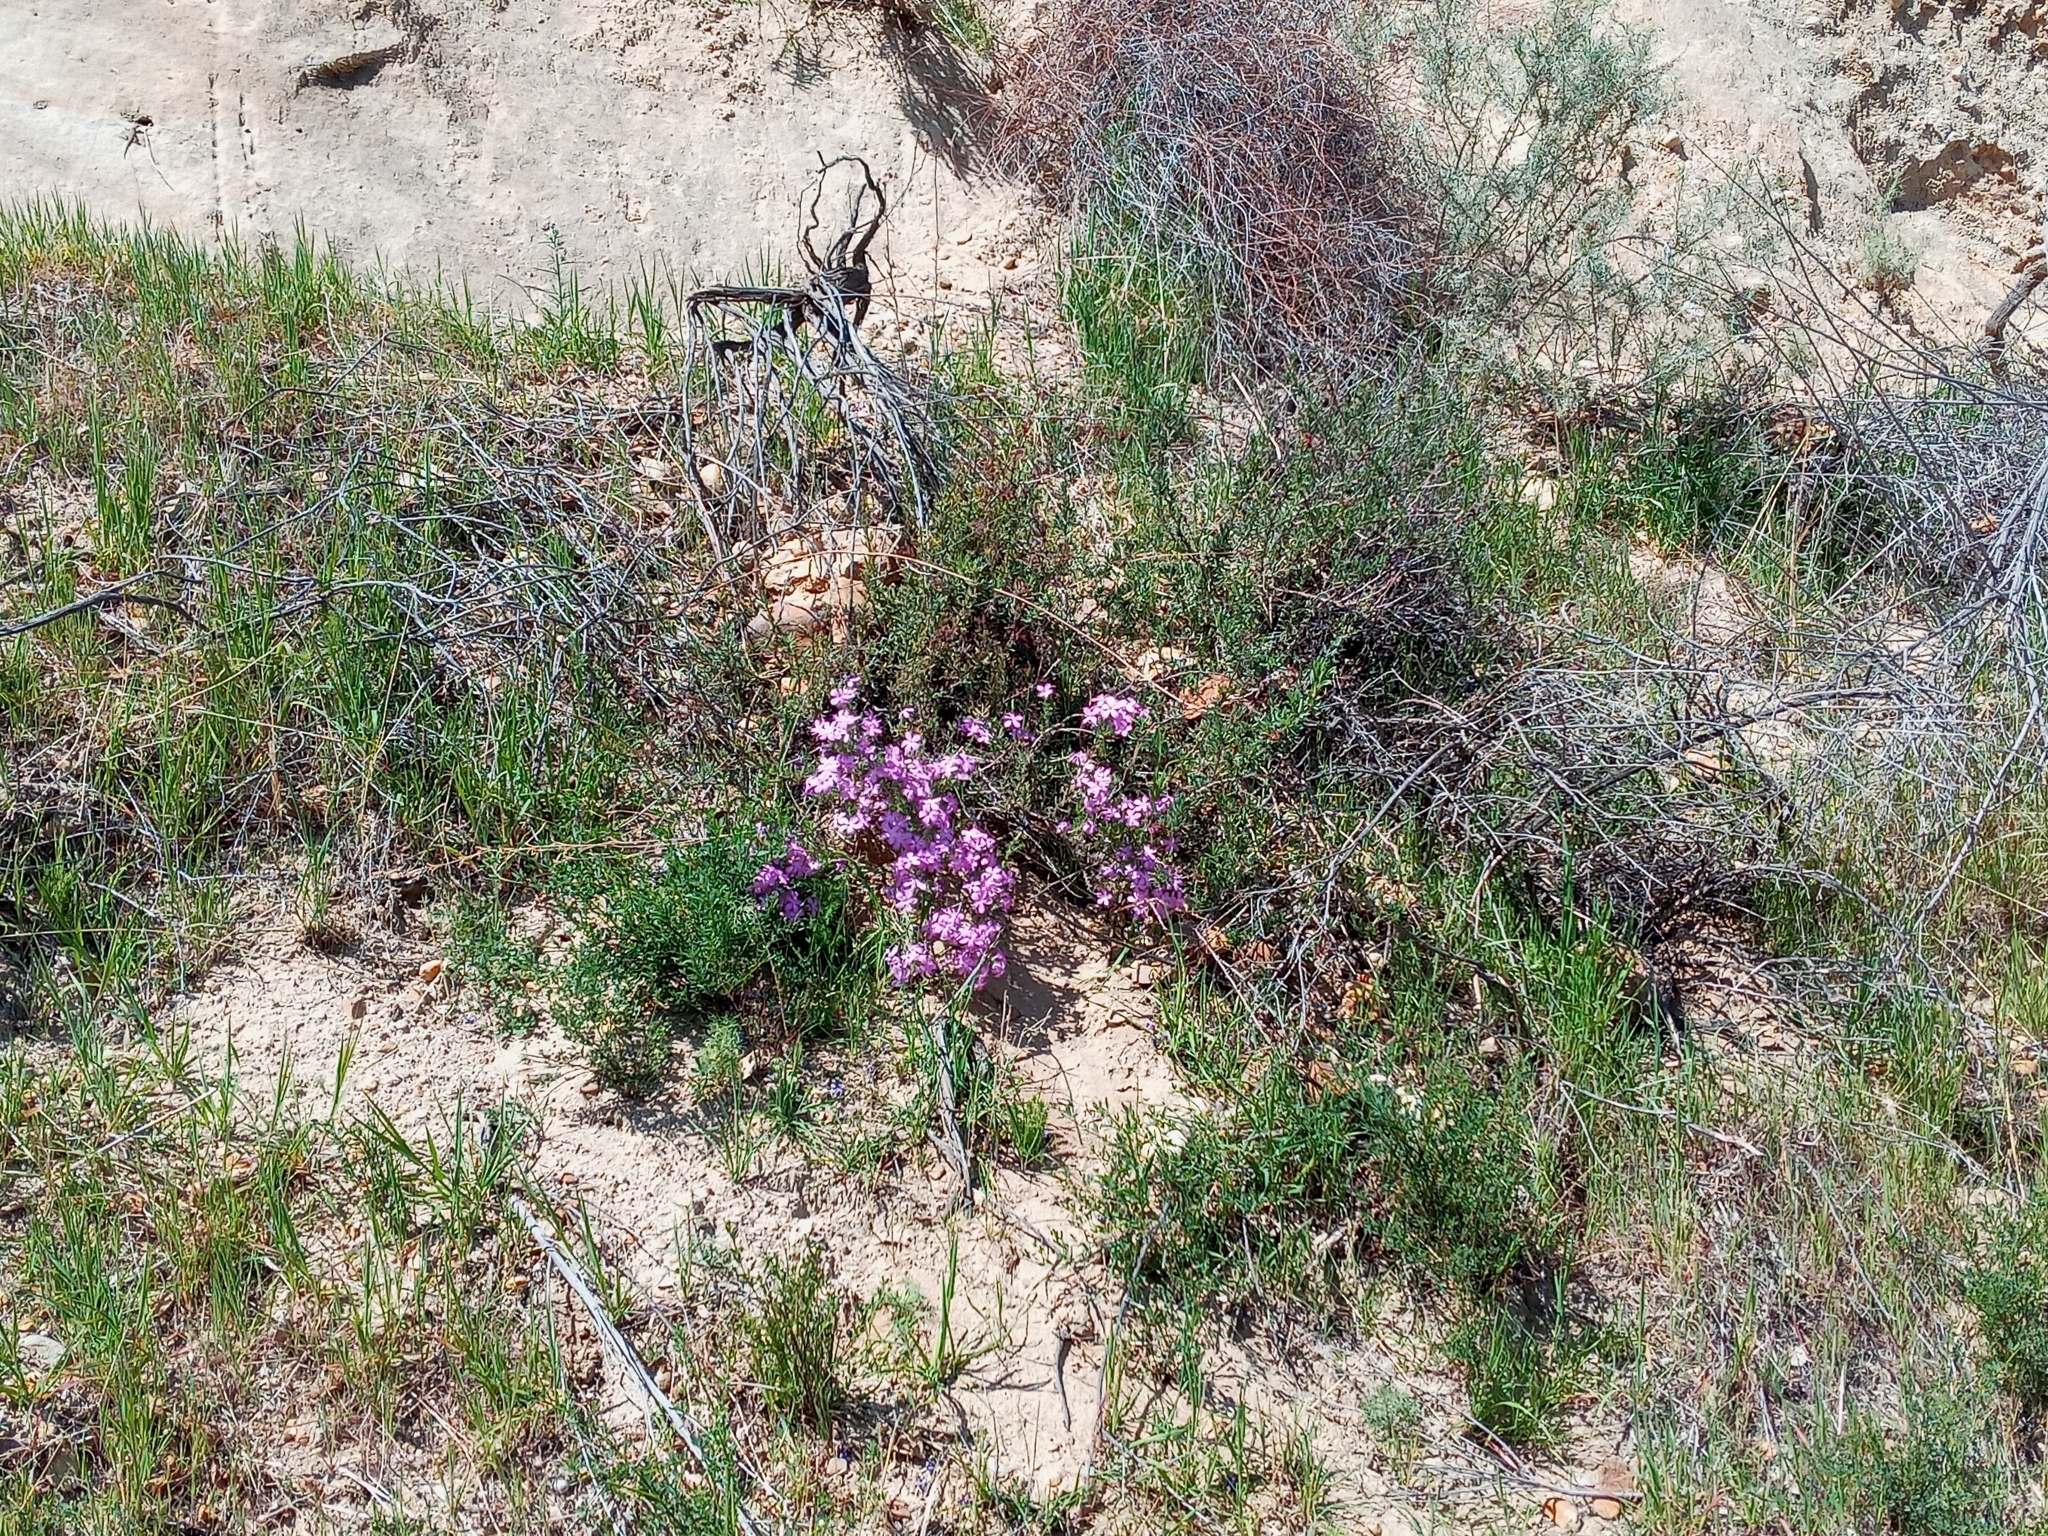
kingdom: Plantae
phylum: Tracheophyta
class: Magnoliopsida
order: Ericales
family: Polemoniaceae
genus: Linanthus
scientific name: Linanthus californicus
